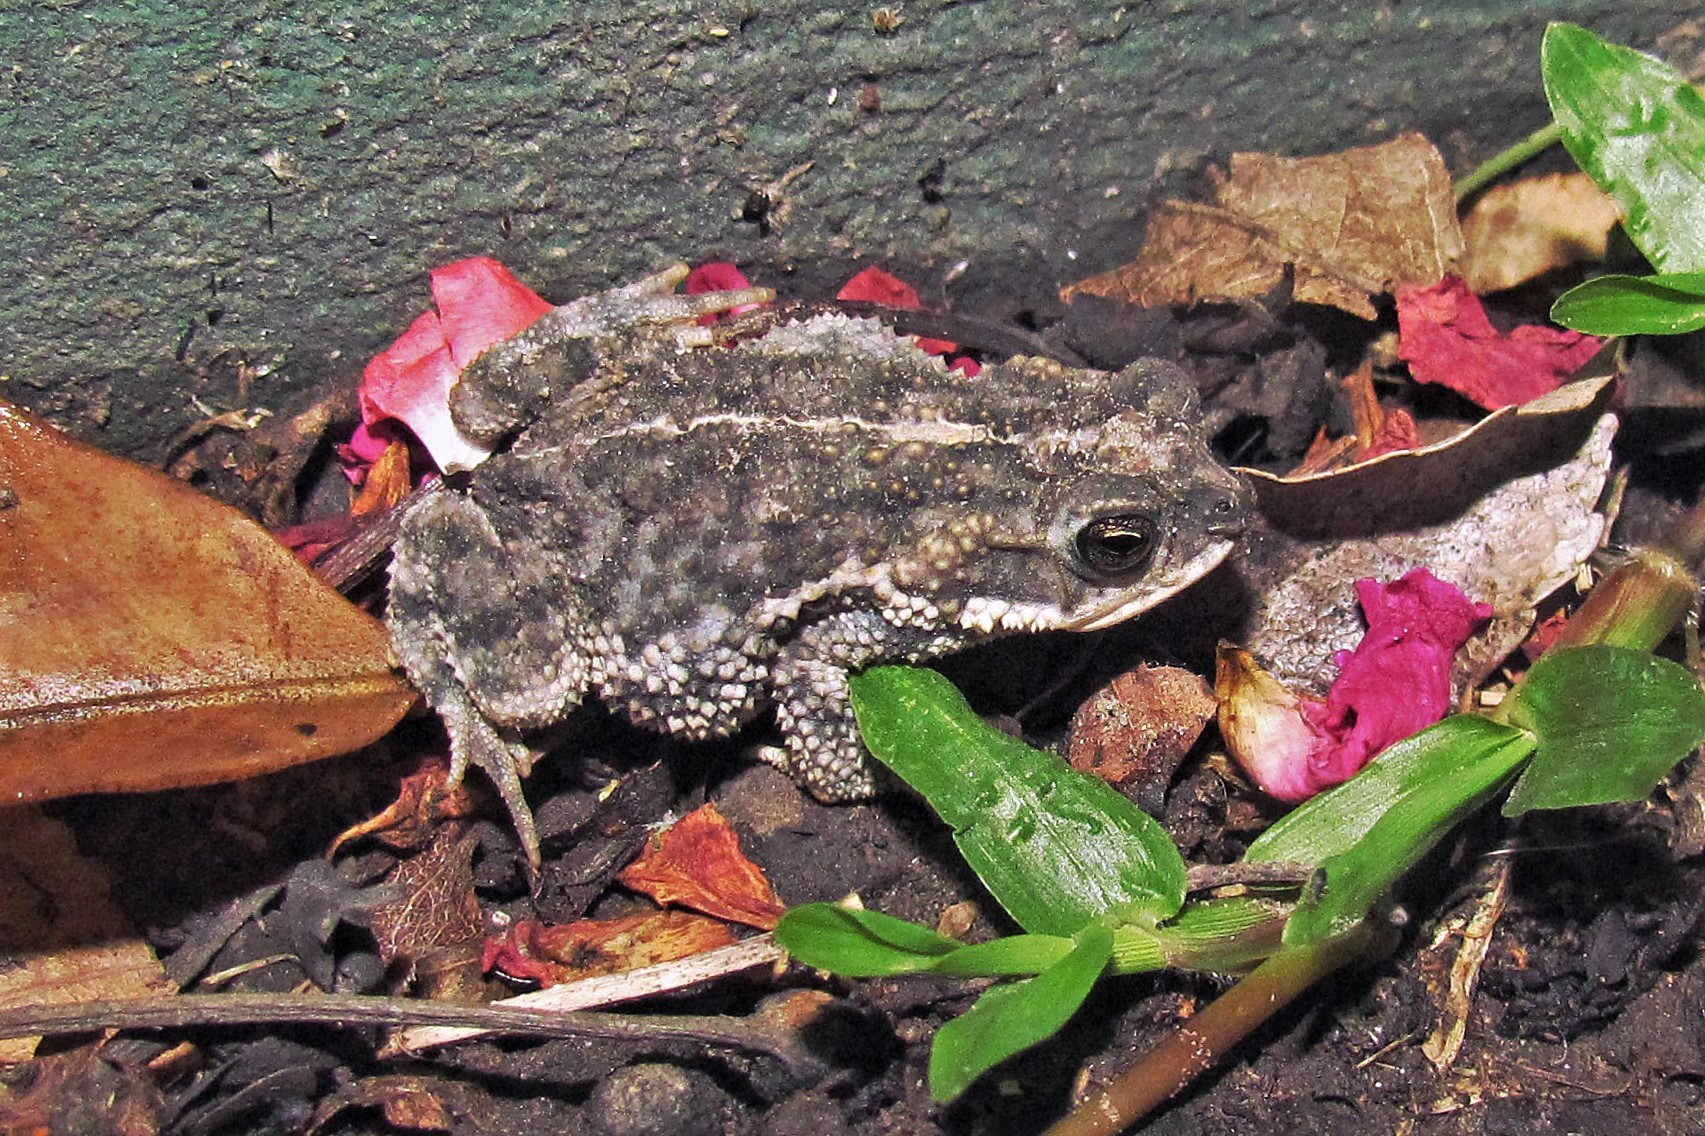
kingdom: Animalia
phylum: Chordata
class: Amphibia
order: Anura
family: Bufonidae
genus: Rhinella
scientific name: Rhinella bergi
